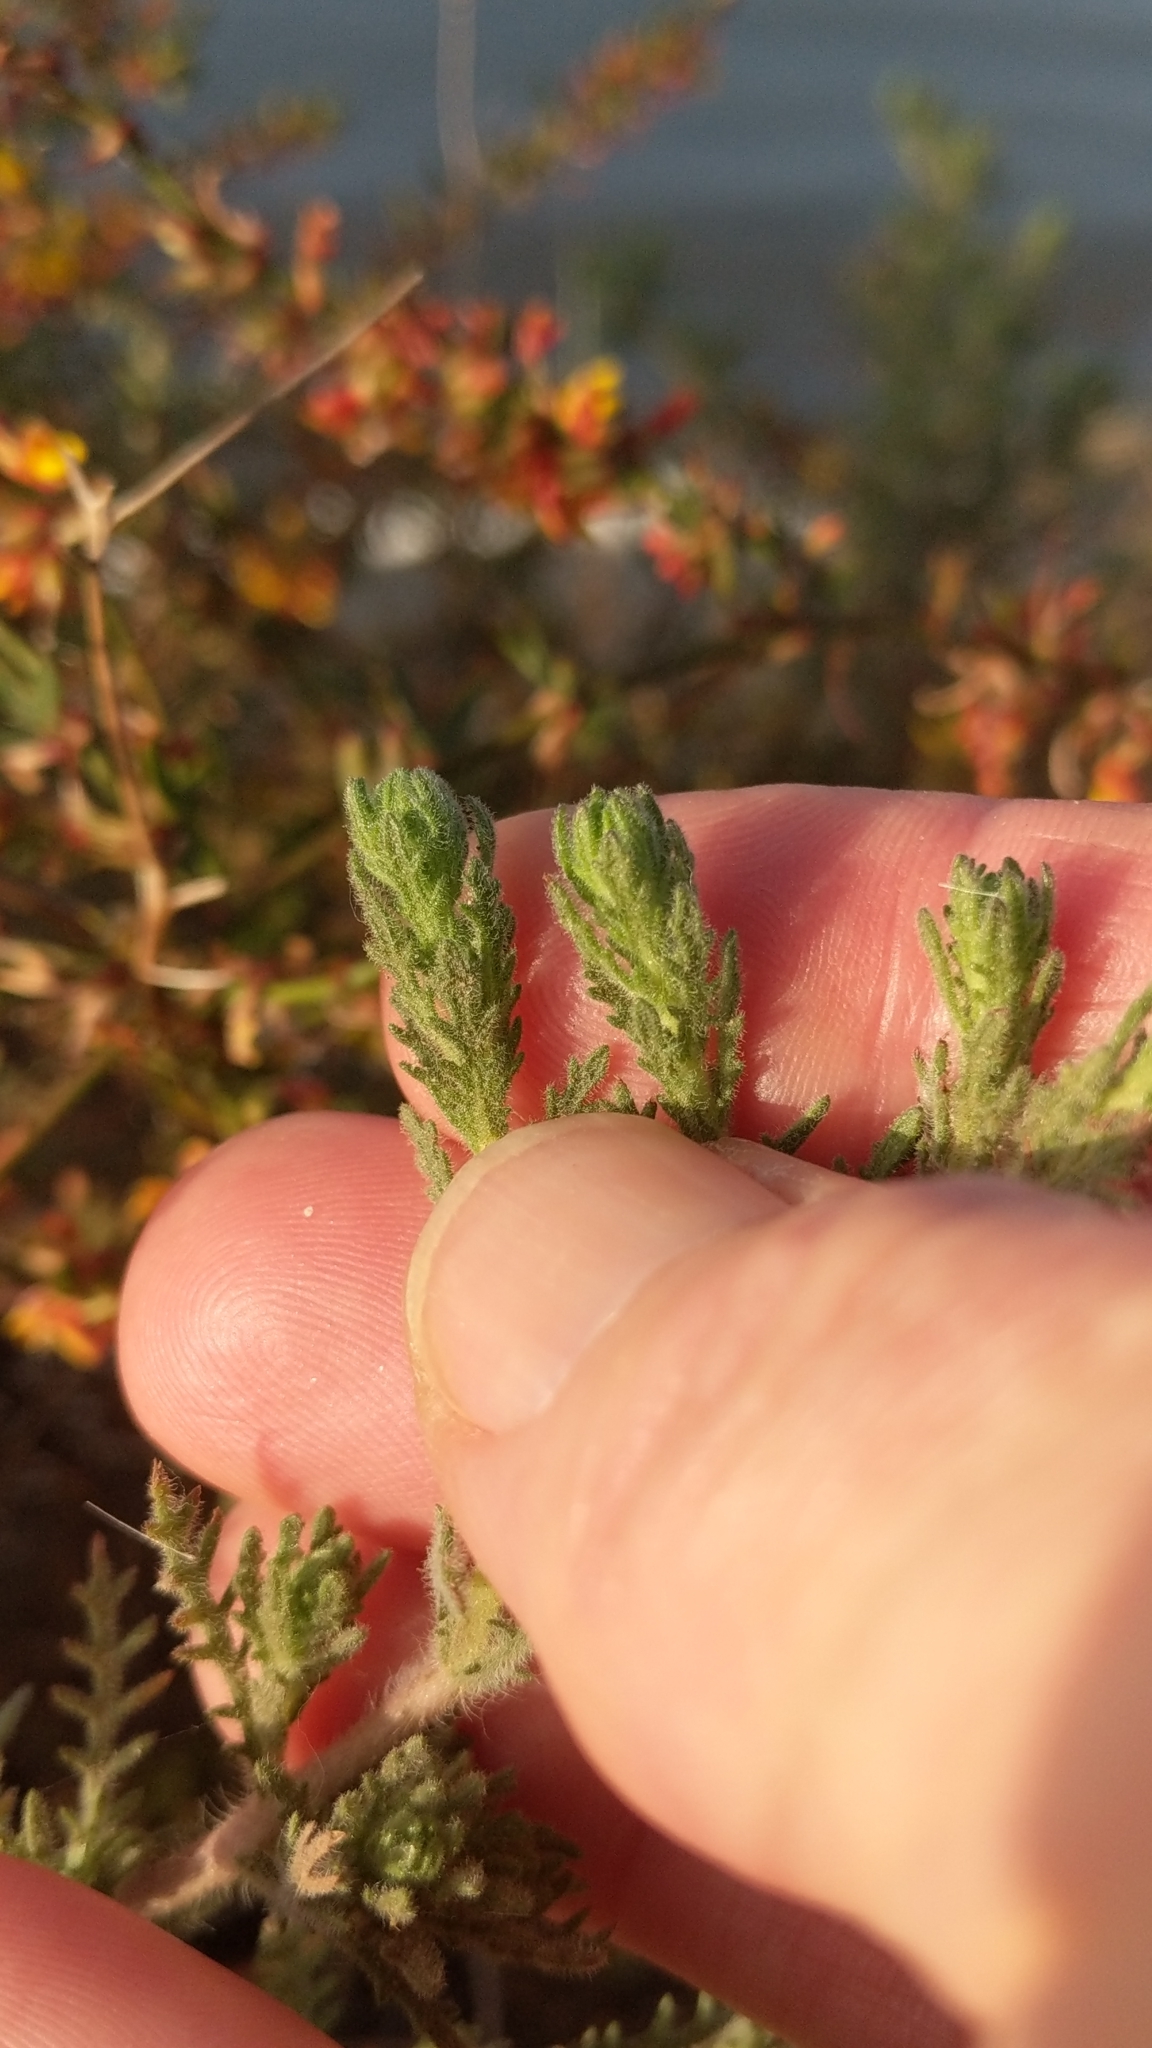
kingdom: Plantae
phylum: Tracheophyta
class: Magnoliopsida
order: Asterales
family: Asteraceae
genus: Deinandra
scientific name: Deinandra increscens
